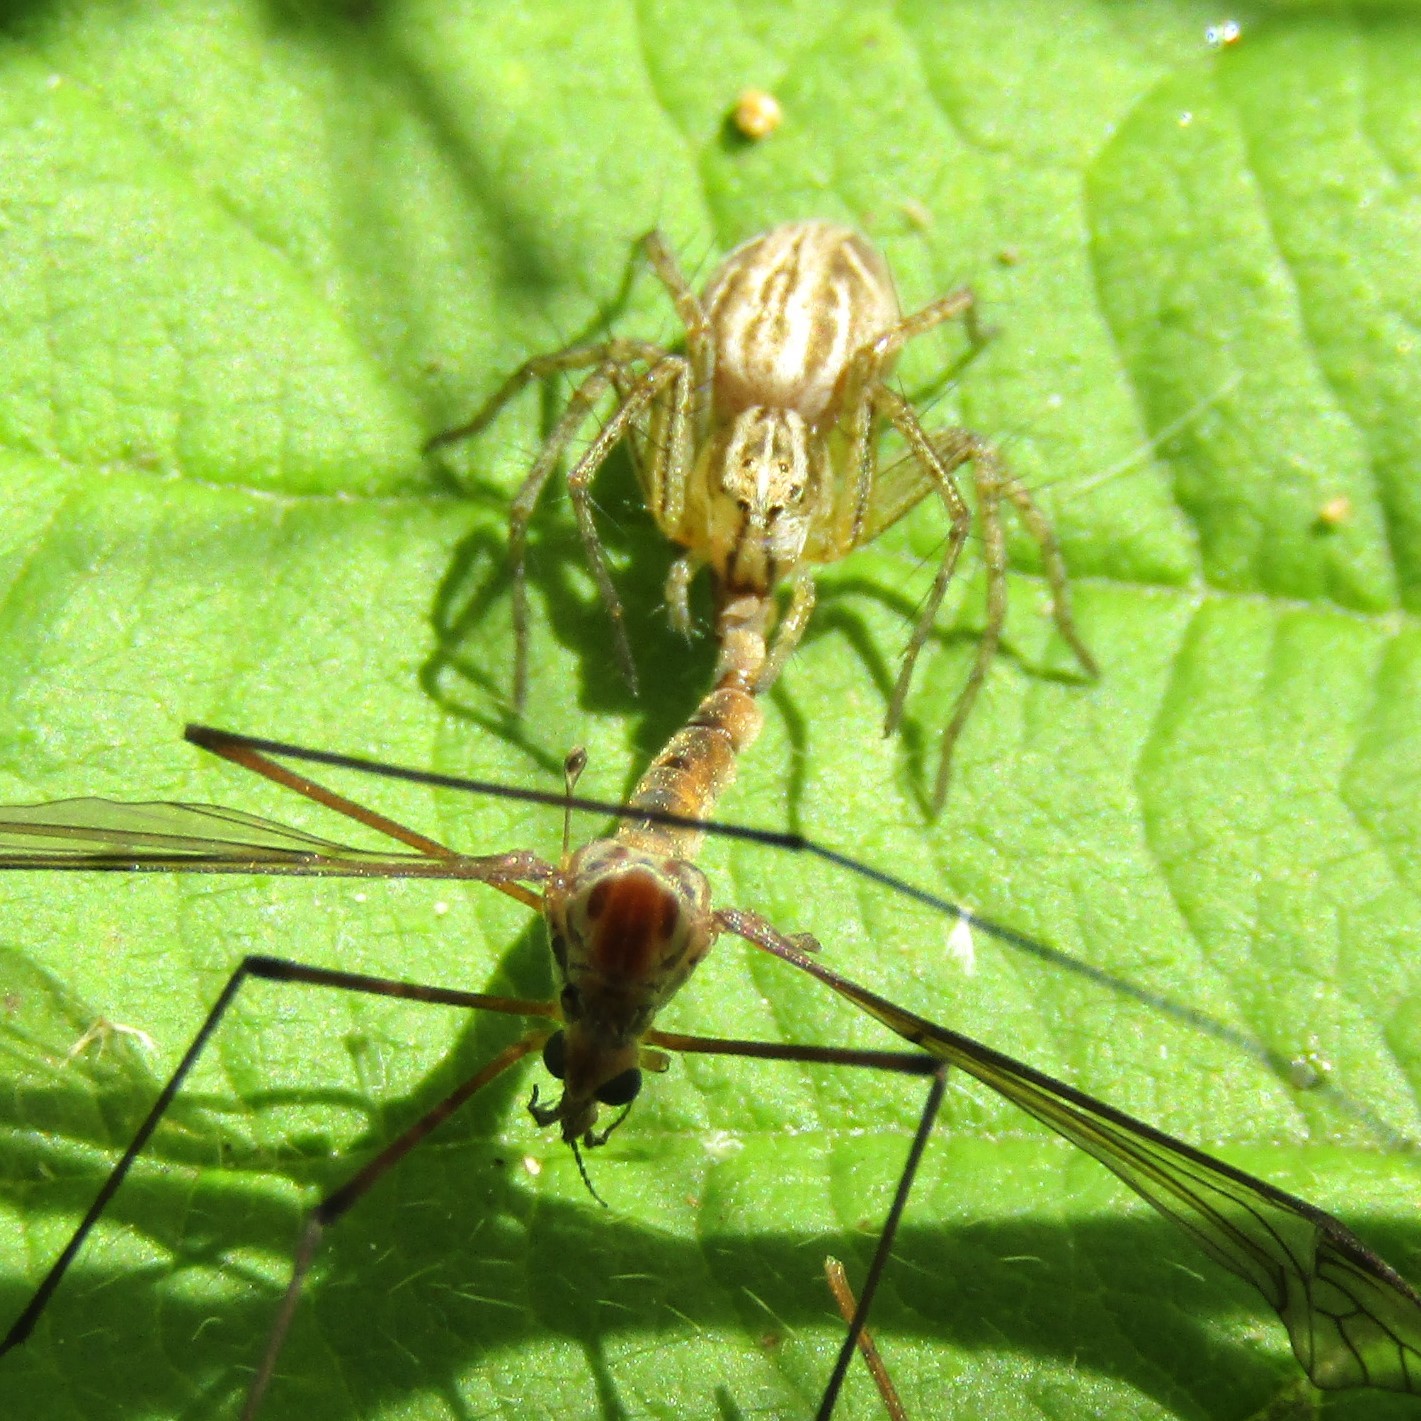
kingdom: Animalia
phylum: Arthropoda
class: Arachnida
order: Araneae
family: Oxyopidae
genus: Oxyopes
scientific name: Oxyopes gracilipes
